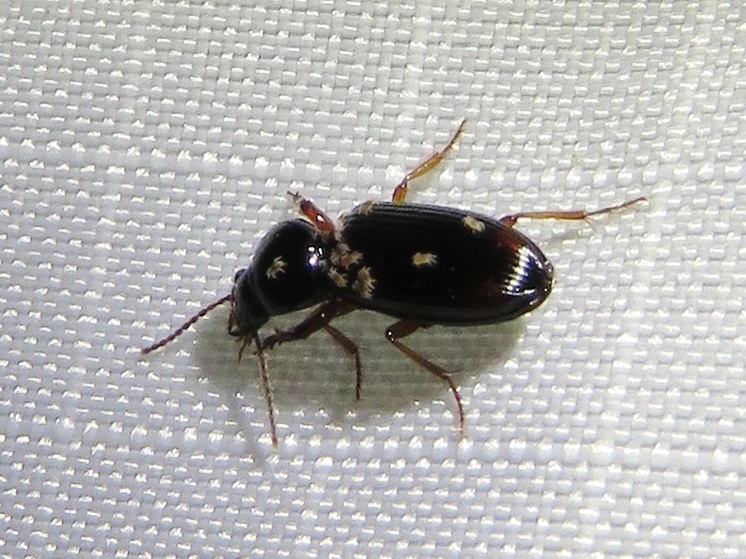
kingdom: Animalia
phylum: Arthropoda
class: Insecta
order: Coleoptera
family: Carabidae
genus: Aspidoglossa
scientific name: Aspidoglossa subangulata
